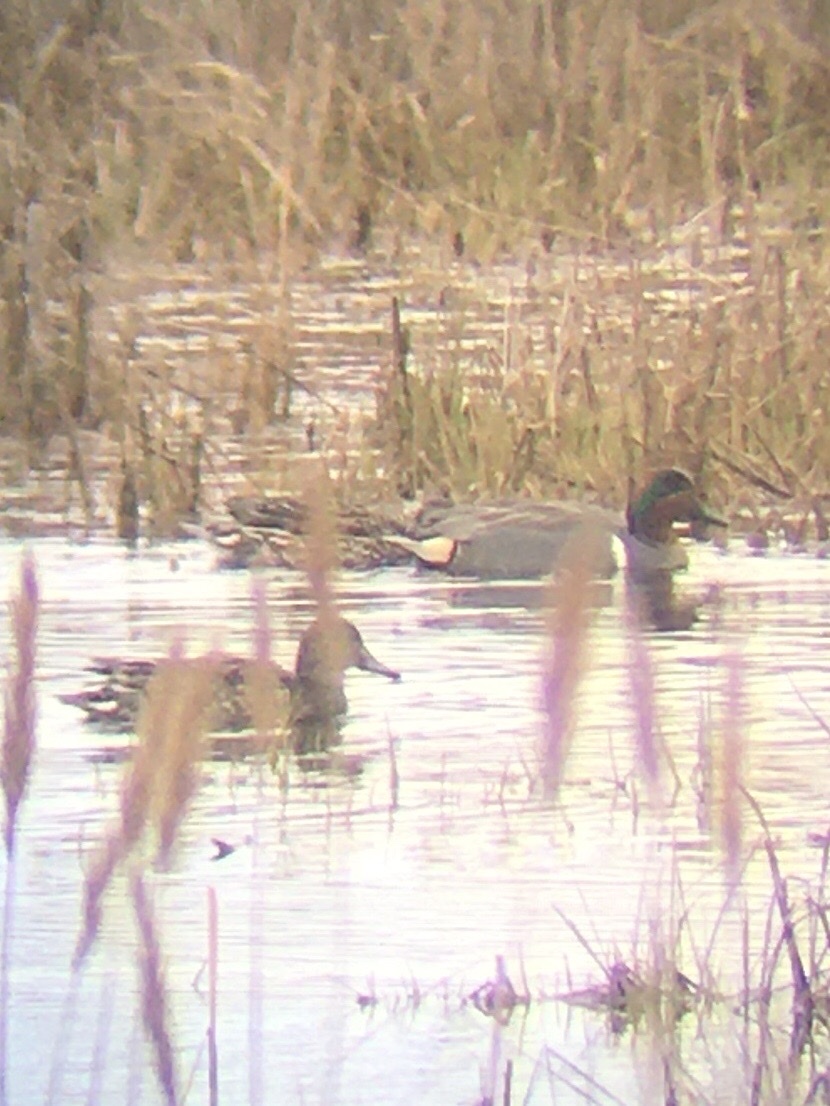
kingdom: Animalia
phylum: Chordata
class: Aves
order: Anseriformes
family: Anatidae
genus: Anas
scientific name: Anas carolinensis
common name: Green-winged teal
